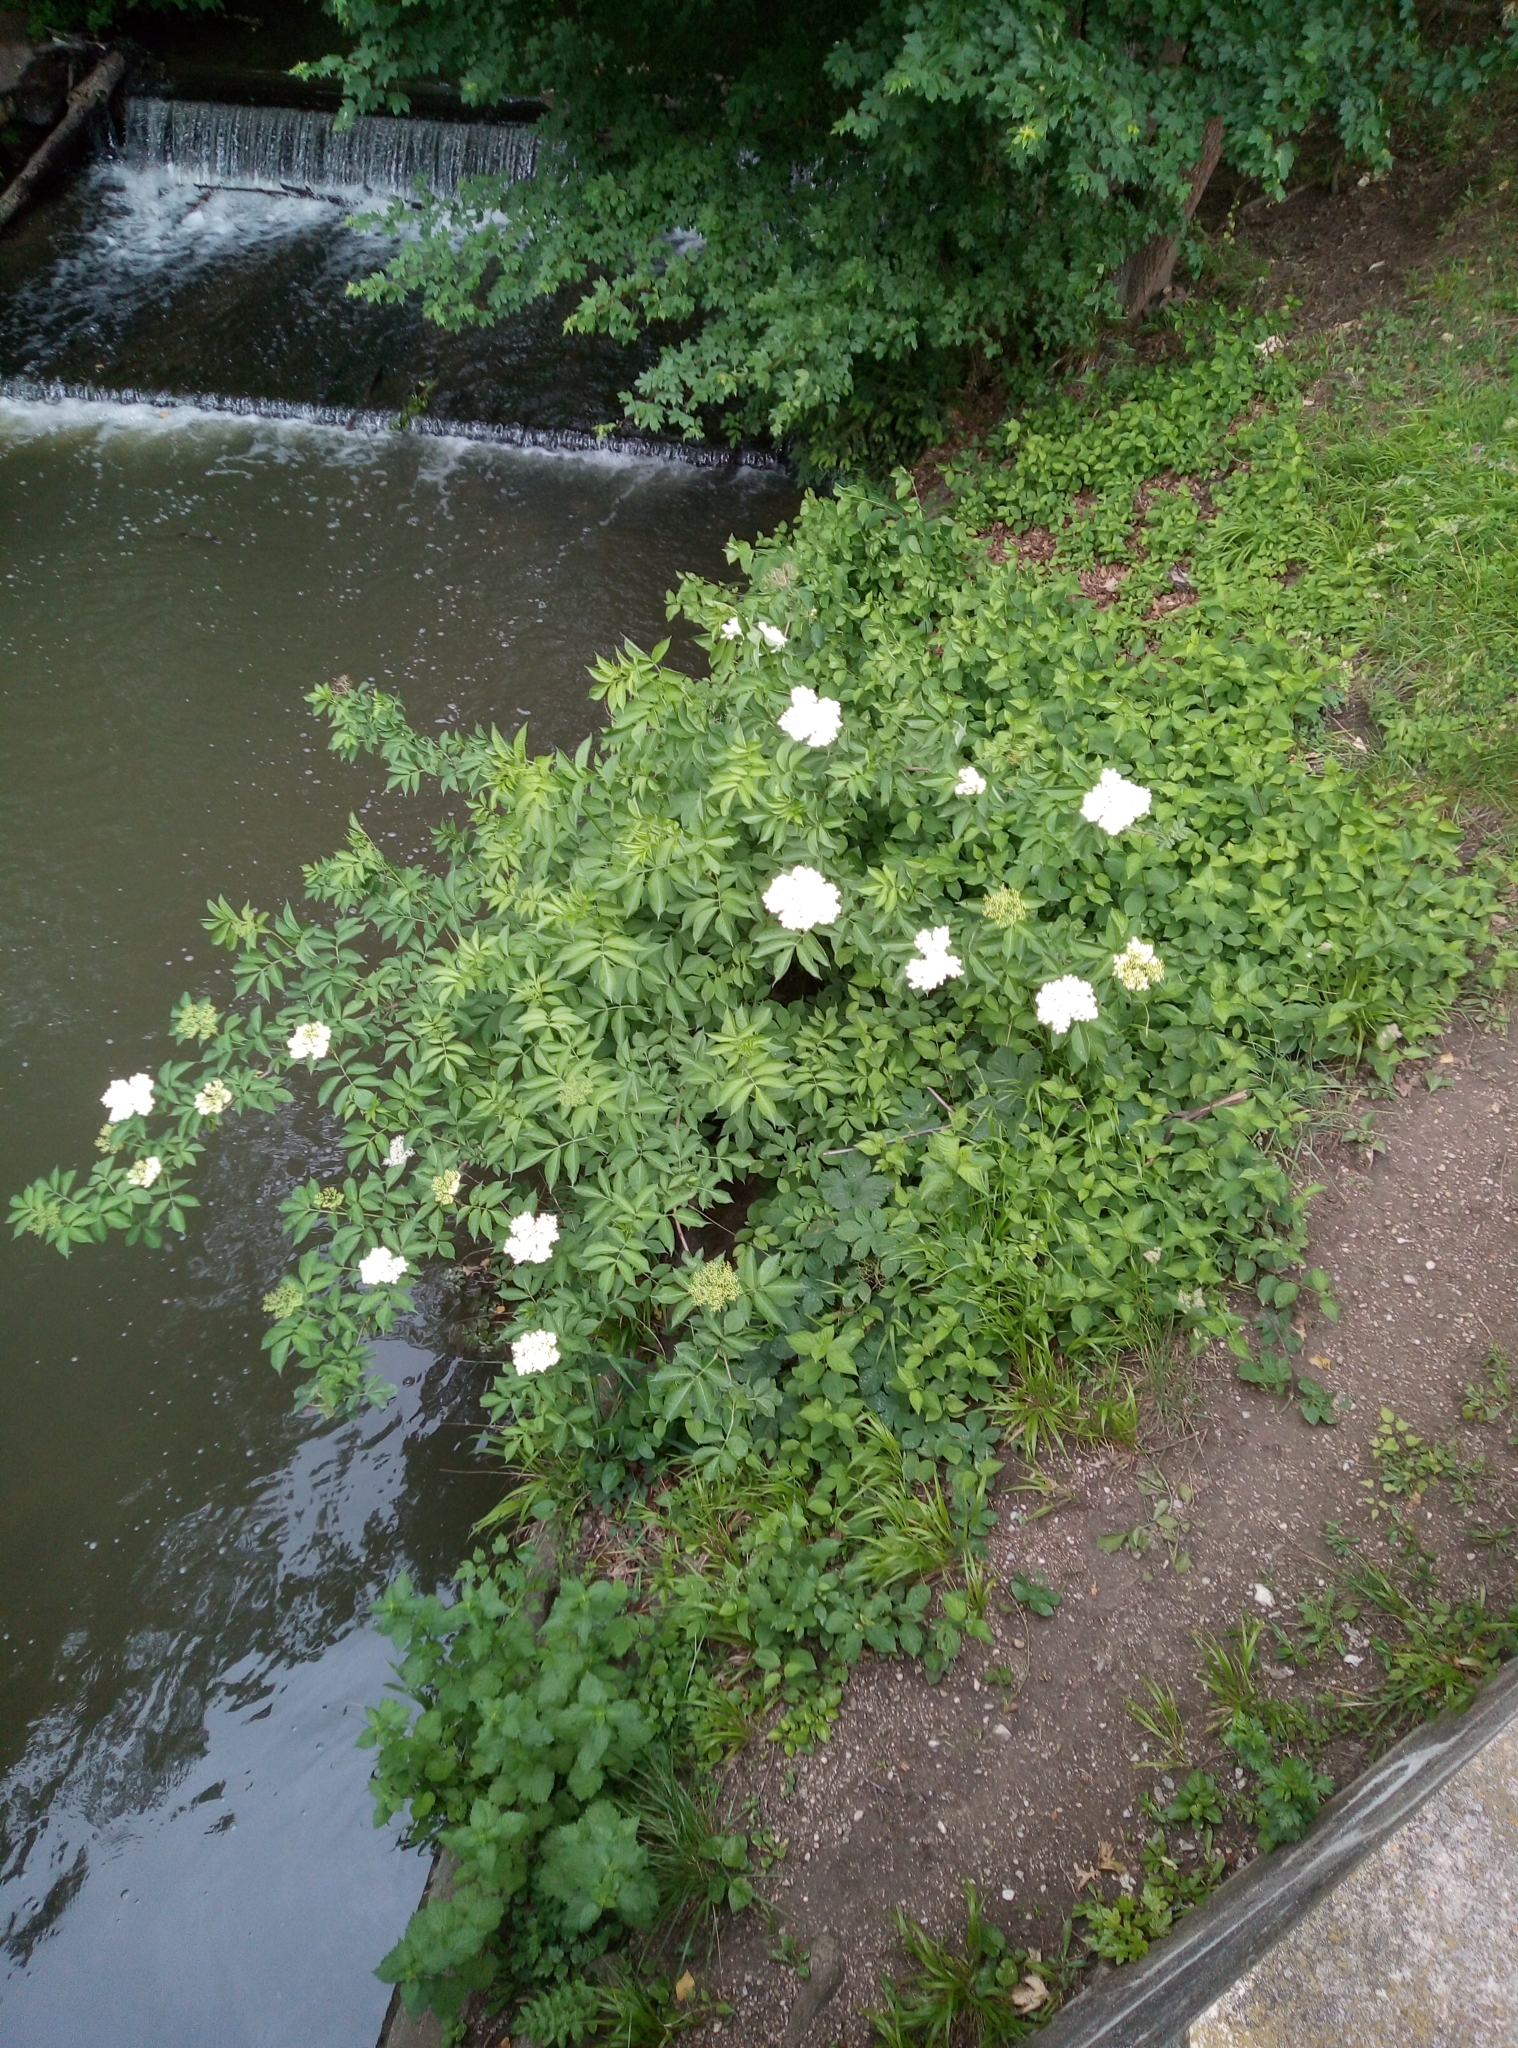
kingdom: Plantae
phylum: Tracheophyta
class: Magnoliopsida
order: Dipsacales
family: Viburnaceae
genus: Sambucus
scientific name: Sambucus nigra
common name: Elder
